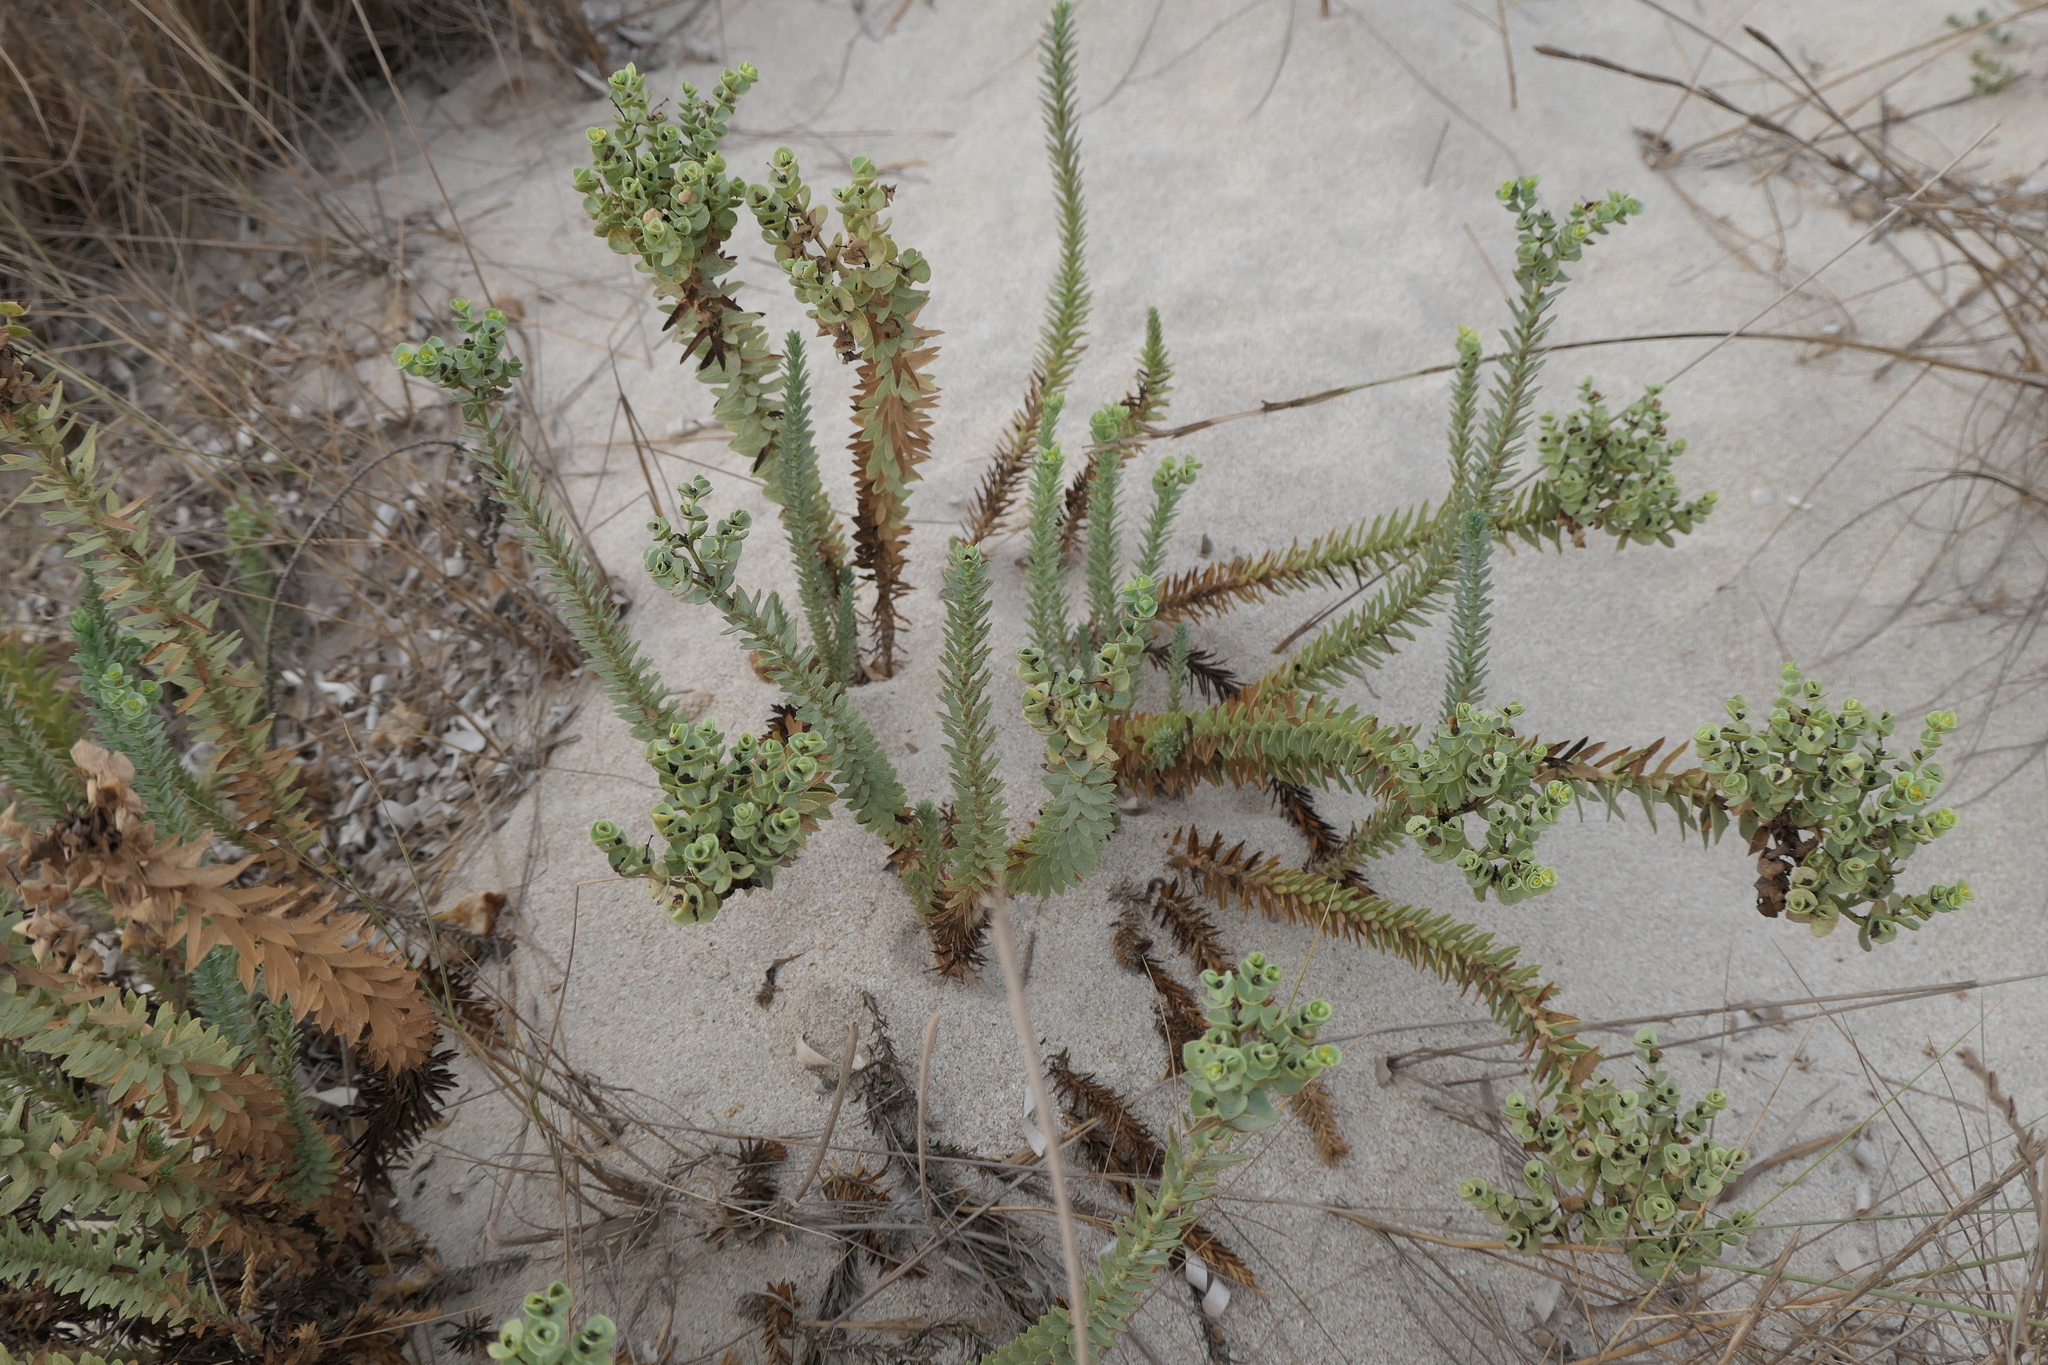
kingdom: Plantae
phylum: Tracheophyta
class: Magnoliopsida
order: Malpighiales
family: Euphorbiaceae
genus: Euphorbia
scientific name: Euphorbia paralias
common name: Sea spurge
